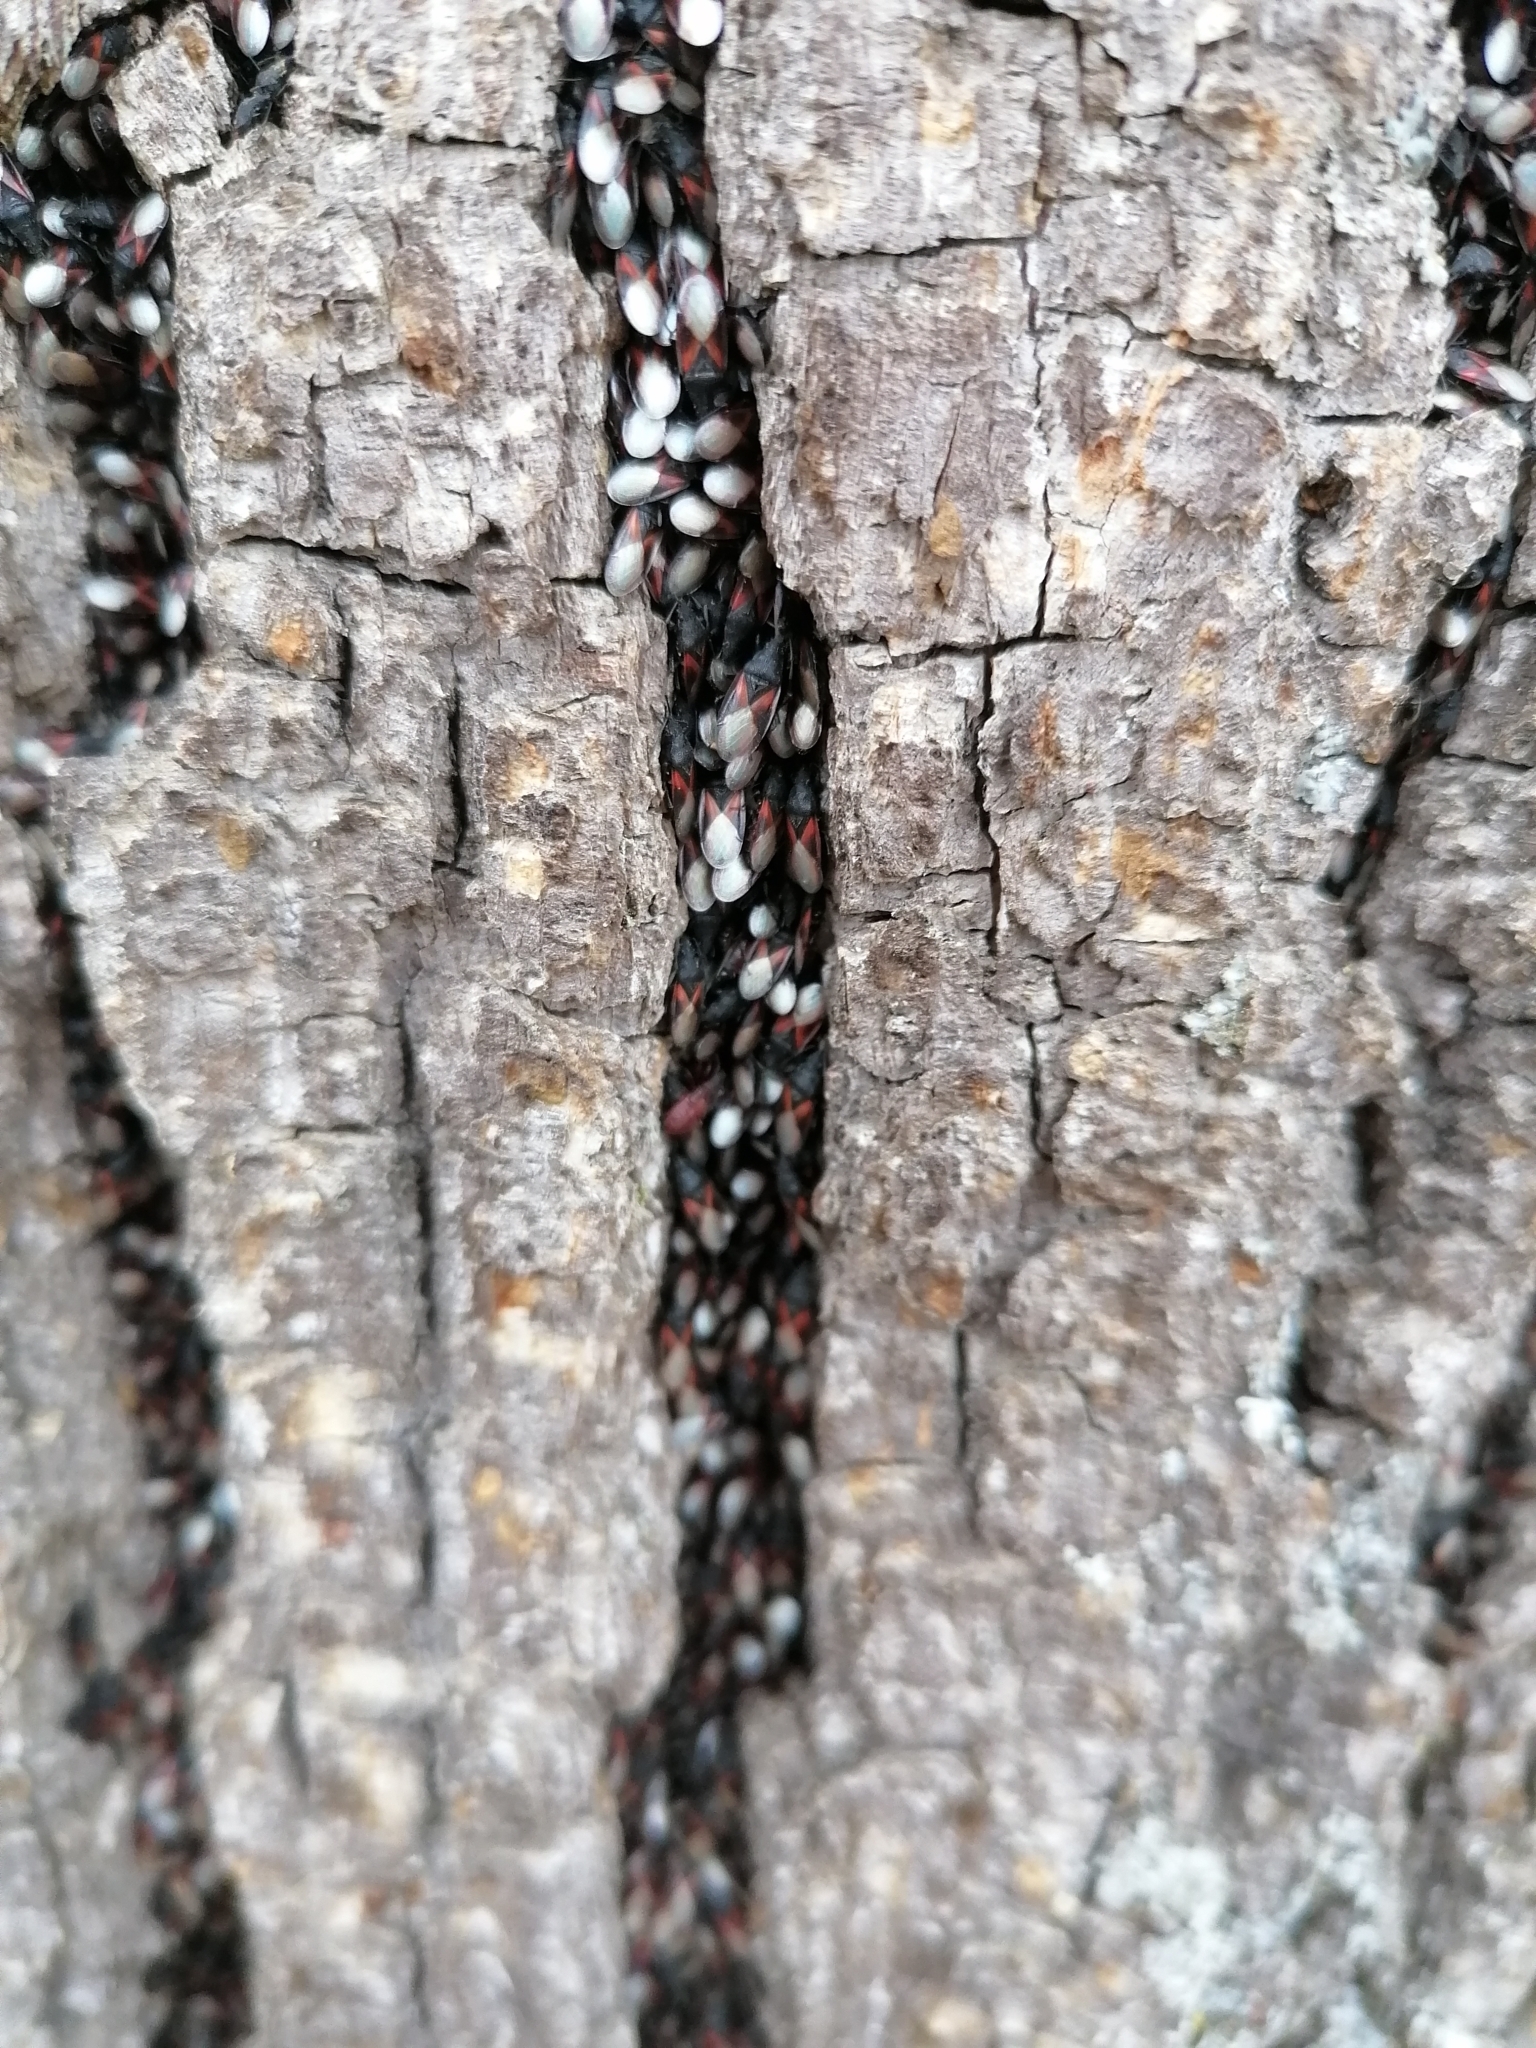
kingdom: Animalia
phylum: Arthropoda
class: Insecta
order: Hemiptera
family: Oxycarenidae
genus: Oxycarenus
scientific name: Oxycarenus lavaterae
